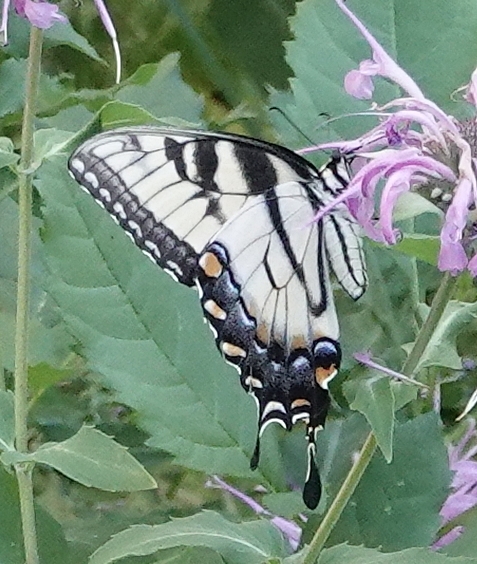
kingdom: Animalia
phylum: Arthropoda
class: Insecta
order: Lepidoptera
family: Papilionidae
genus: Papilio
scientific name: Papilio glaucus
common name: Tiger swallowtail
